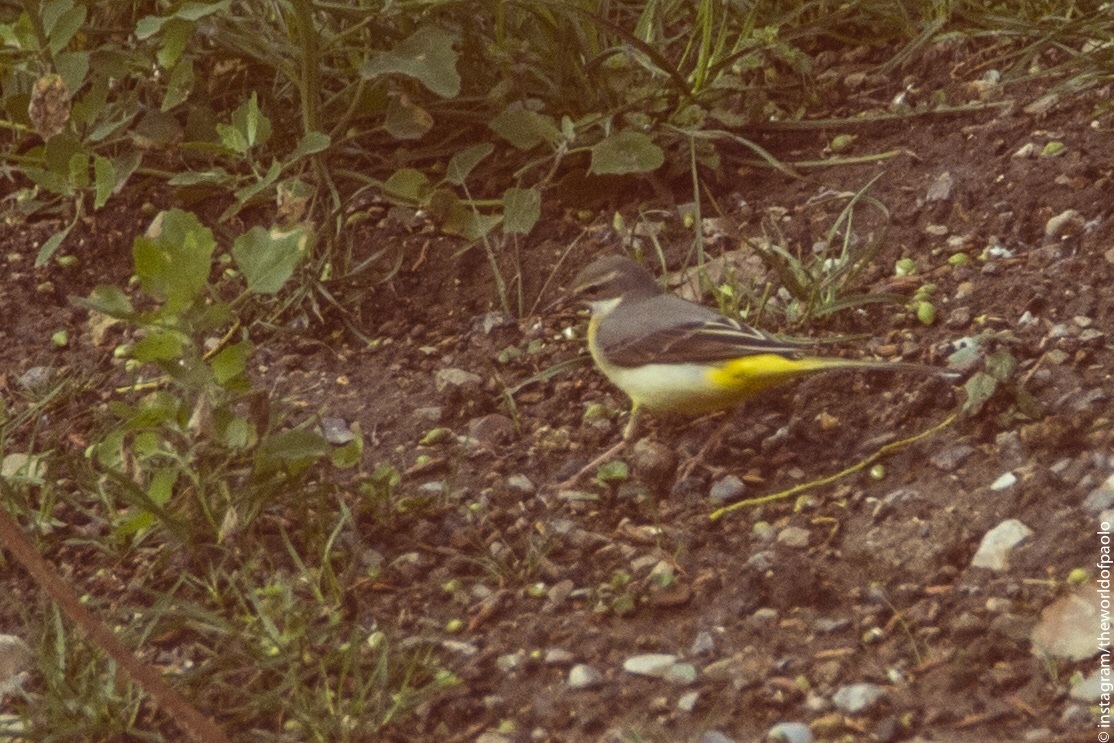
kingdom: Animalia
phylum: Chordata
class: Aves
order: Passeriformes
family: Motacillidae
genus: Motacilla
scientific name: Motacilla cinerea
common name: Grey wagtail
